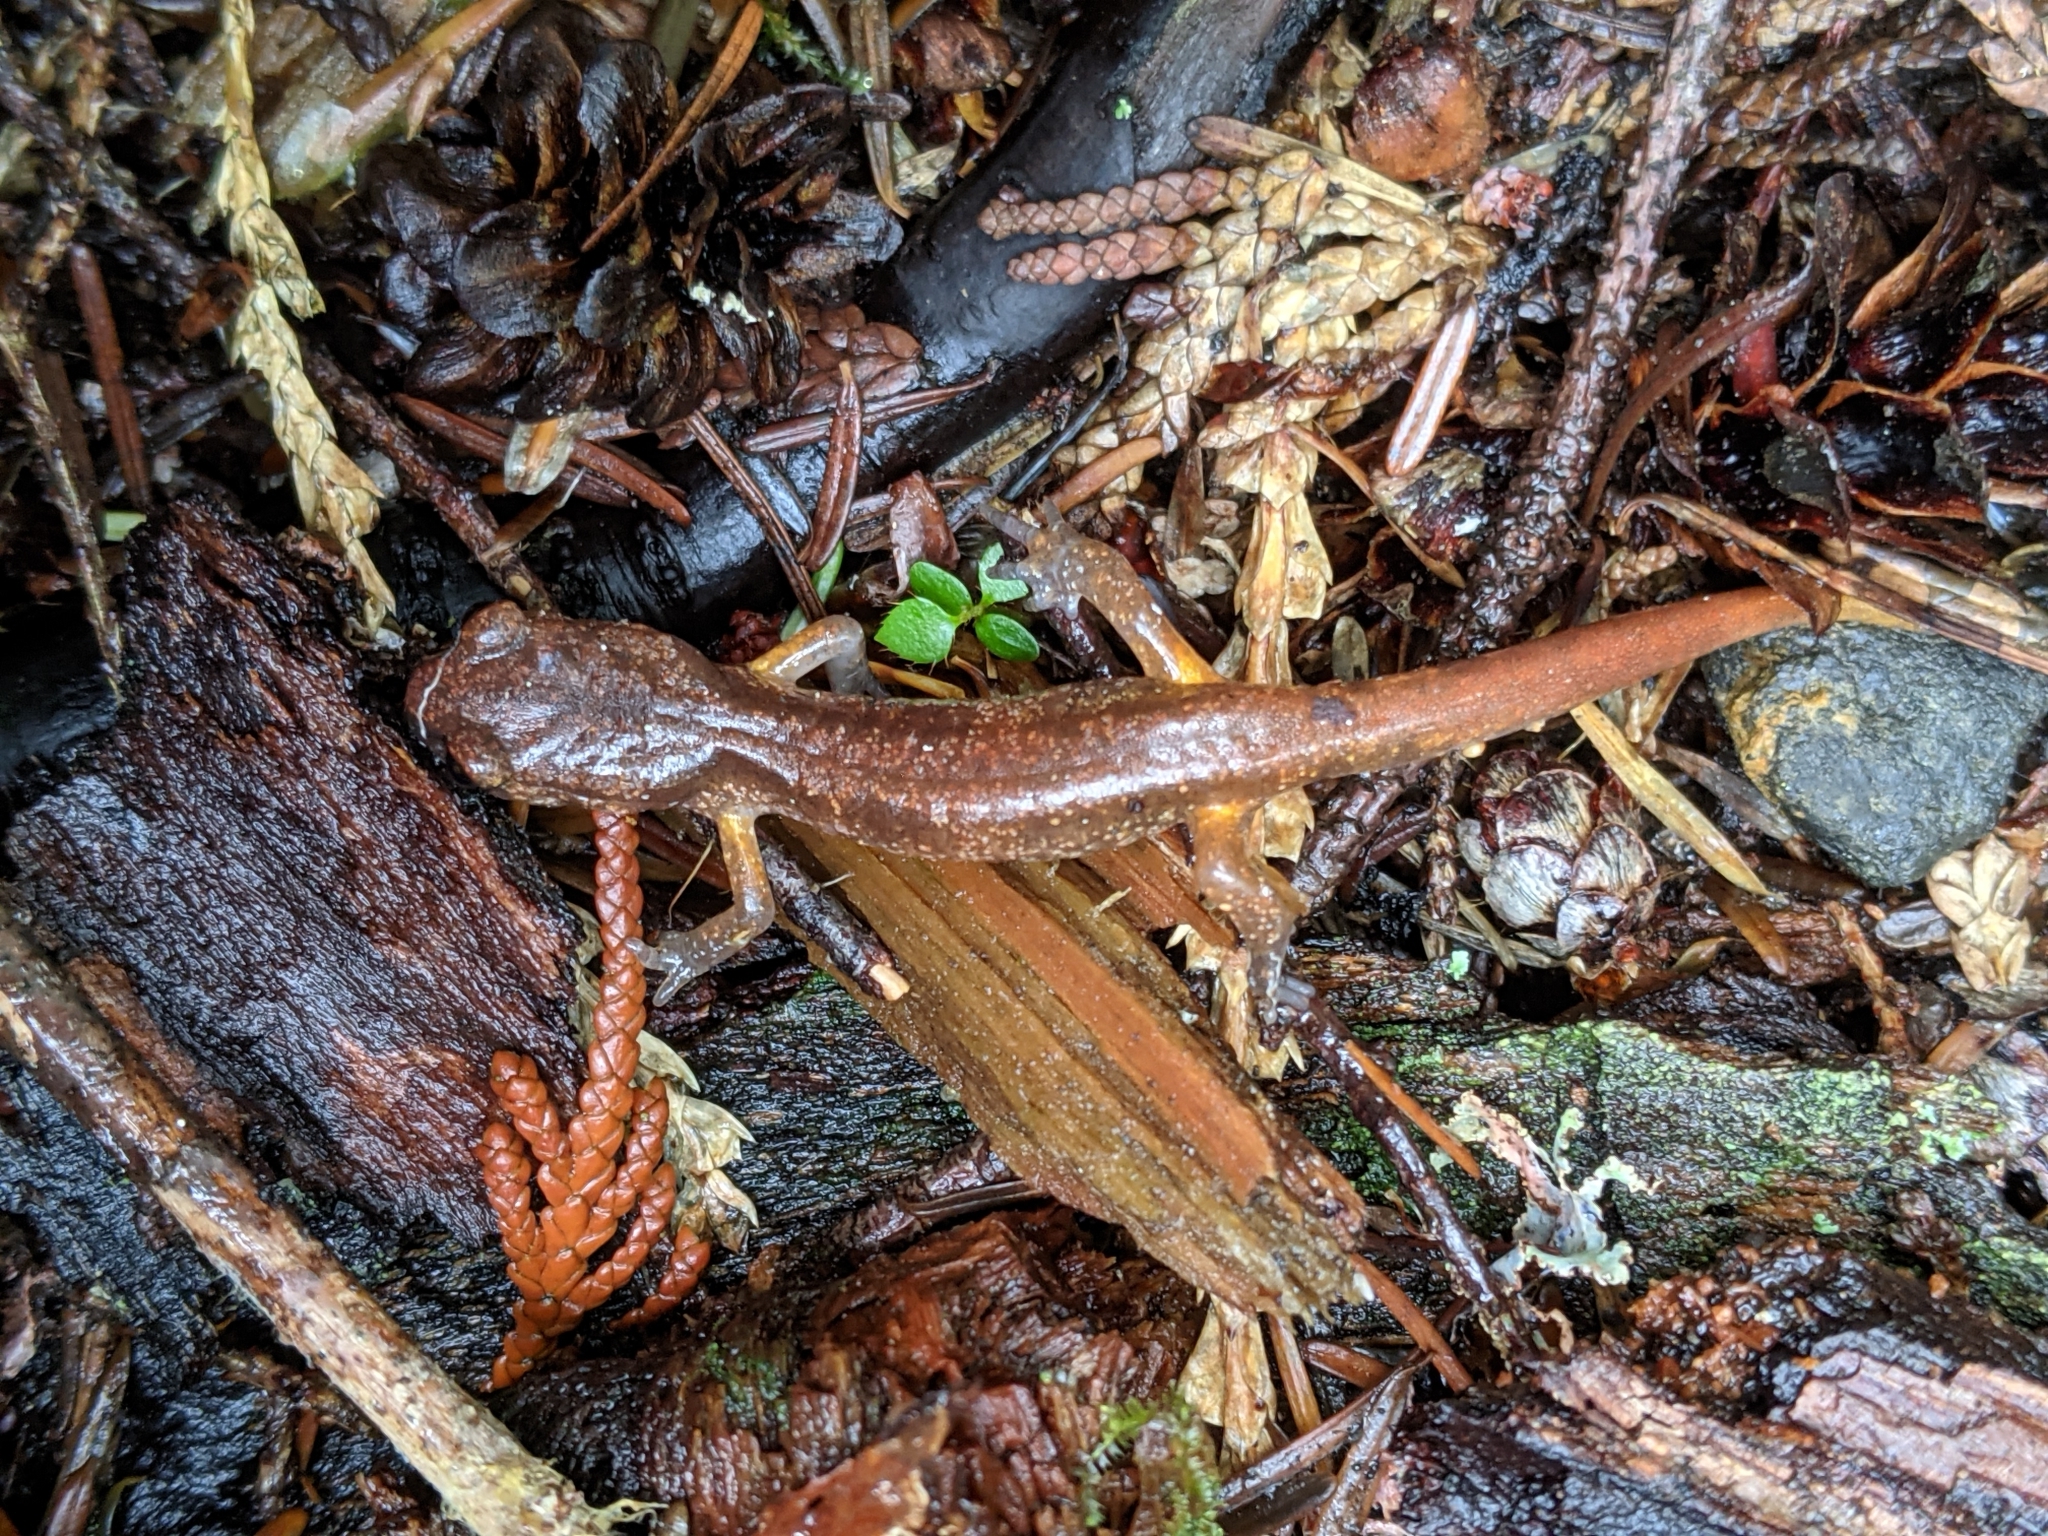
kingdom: Animalia
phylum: Chordata
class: Amphibia
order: Caudata
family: Plethodontidae
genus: Ensatina
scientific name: Ensatina eschscholtzii
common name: Ensatina
